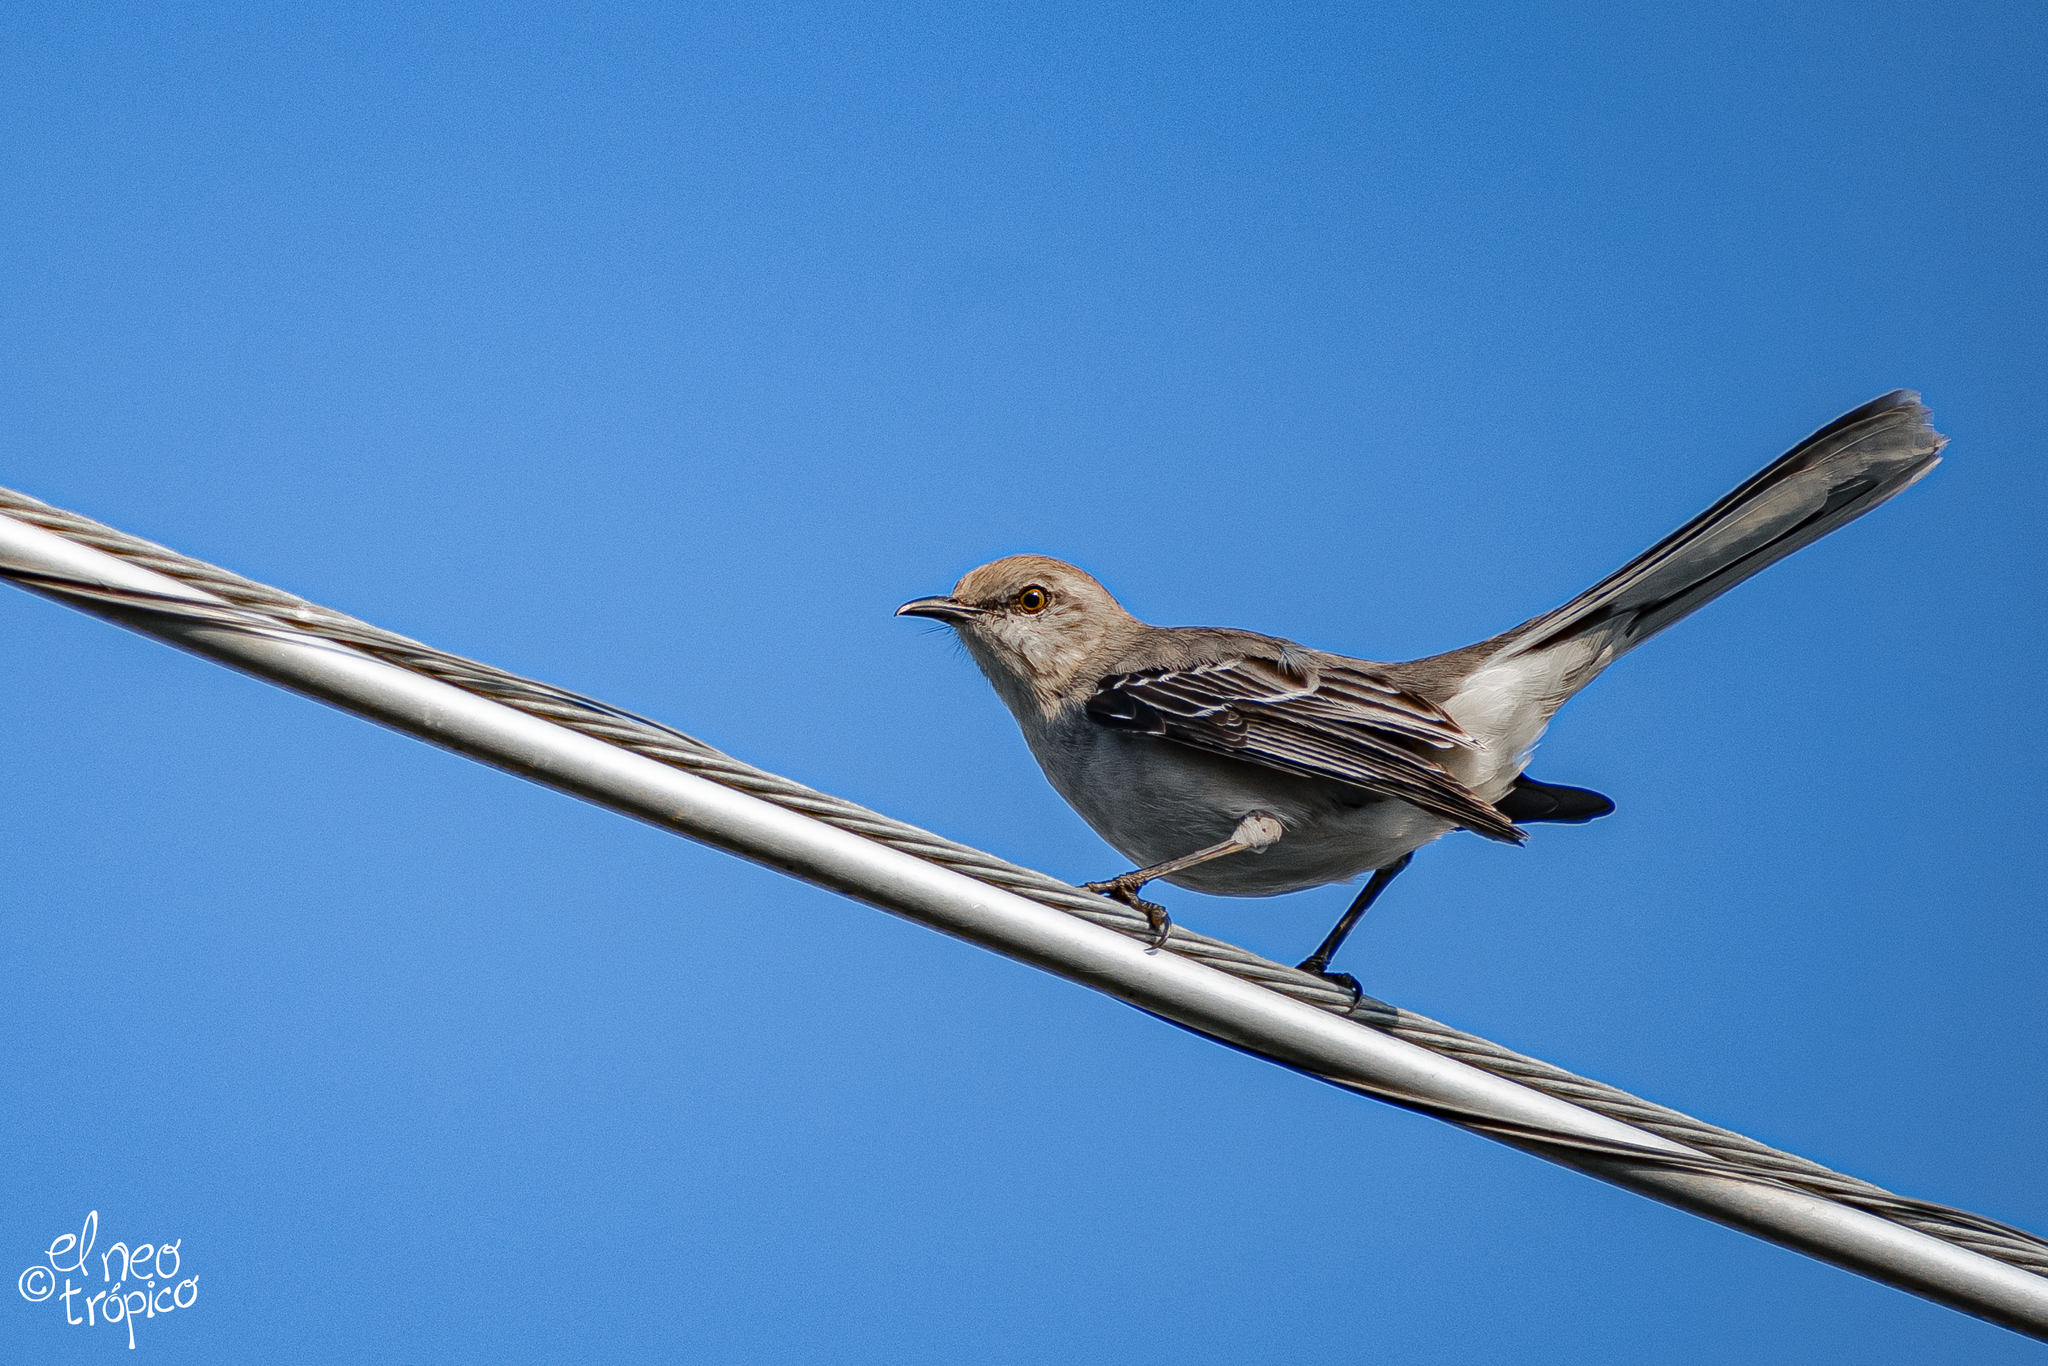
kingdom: Animalia
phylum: Chordata
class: Aves
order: Passeriformes
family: Mimidae
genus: Mimus
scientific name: Mimus gilvus
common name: Tropical mockingbird
